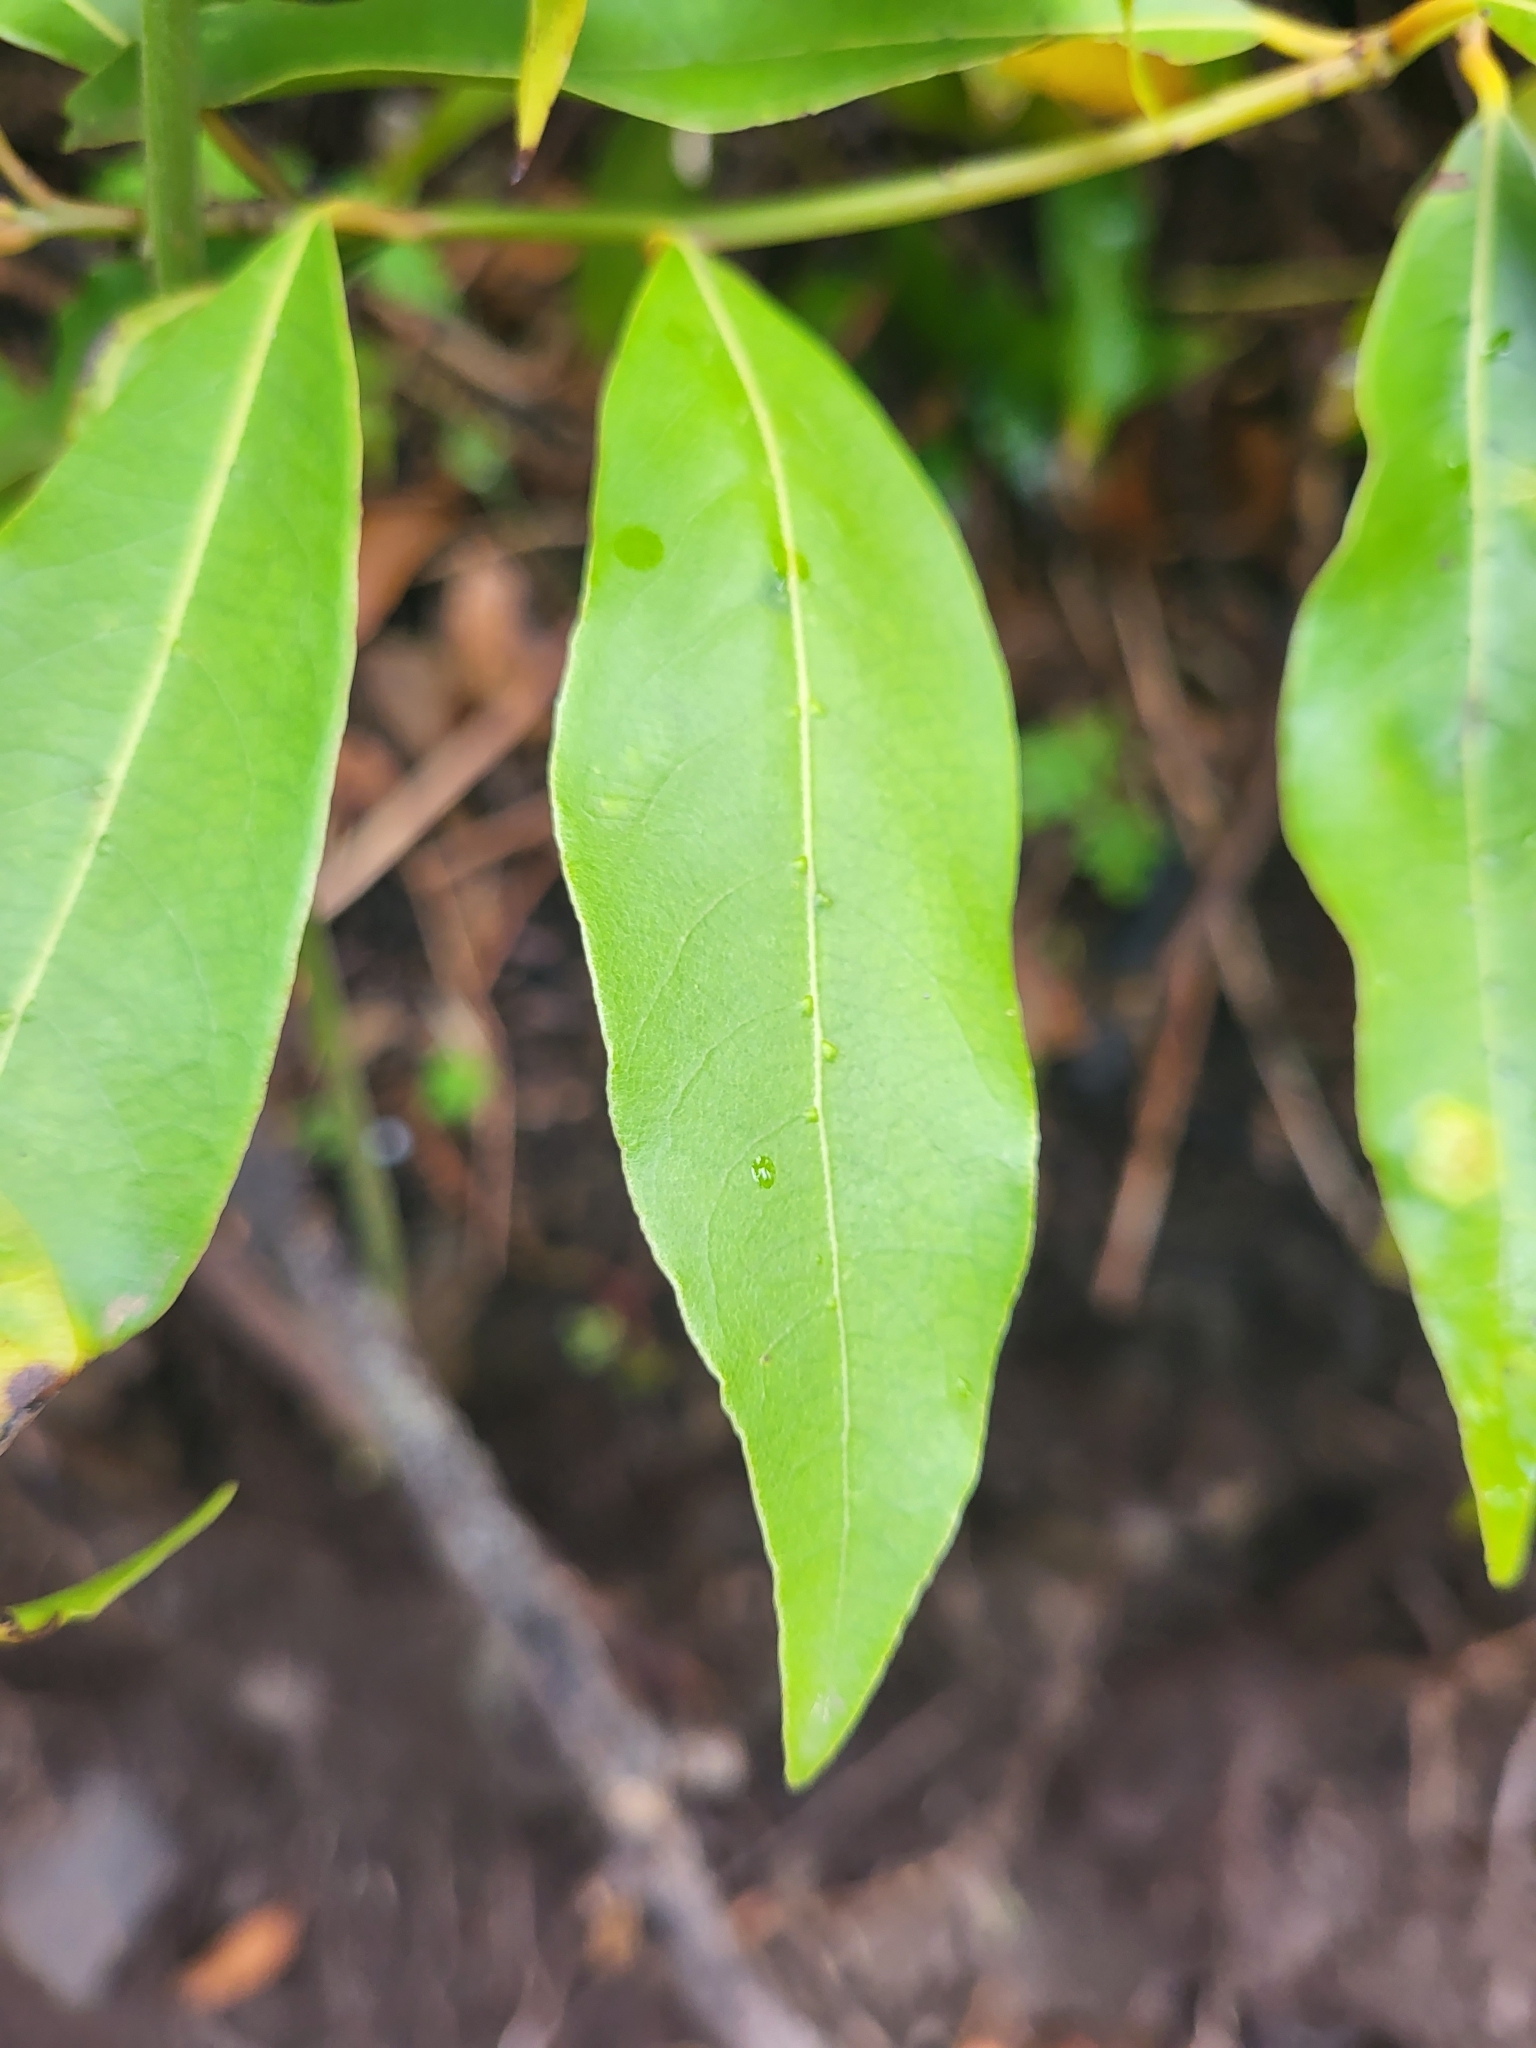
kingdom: Plantae
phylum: Tracheophyta
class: Magnoliopsida
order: Laurales
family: Lauraceae
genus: Laurus
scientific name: Laurus novocanariensis
